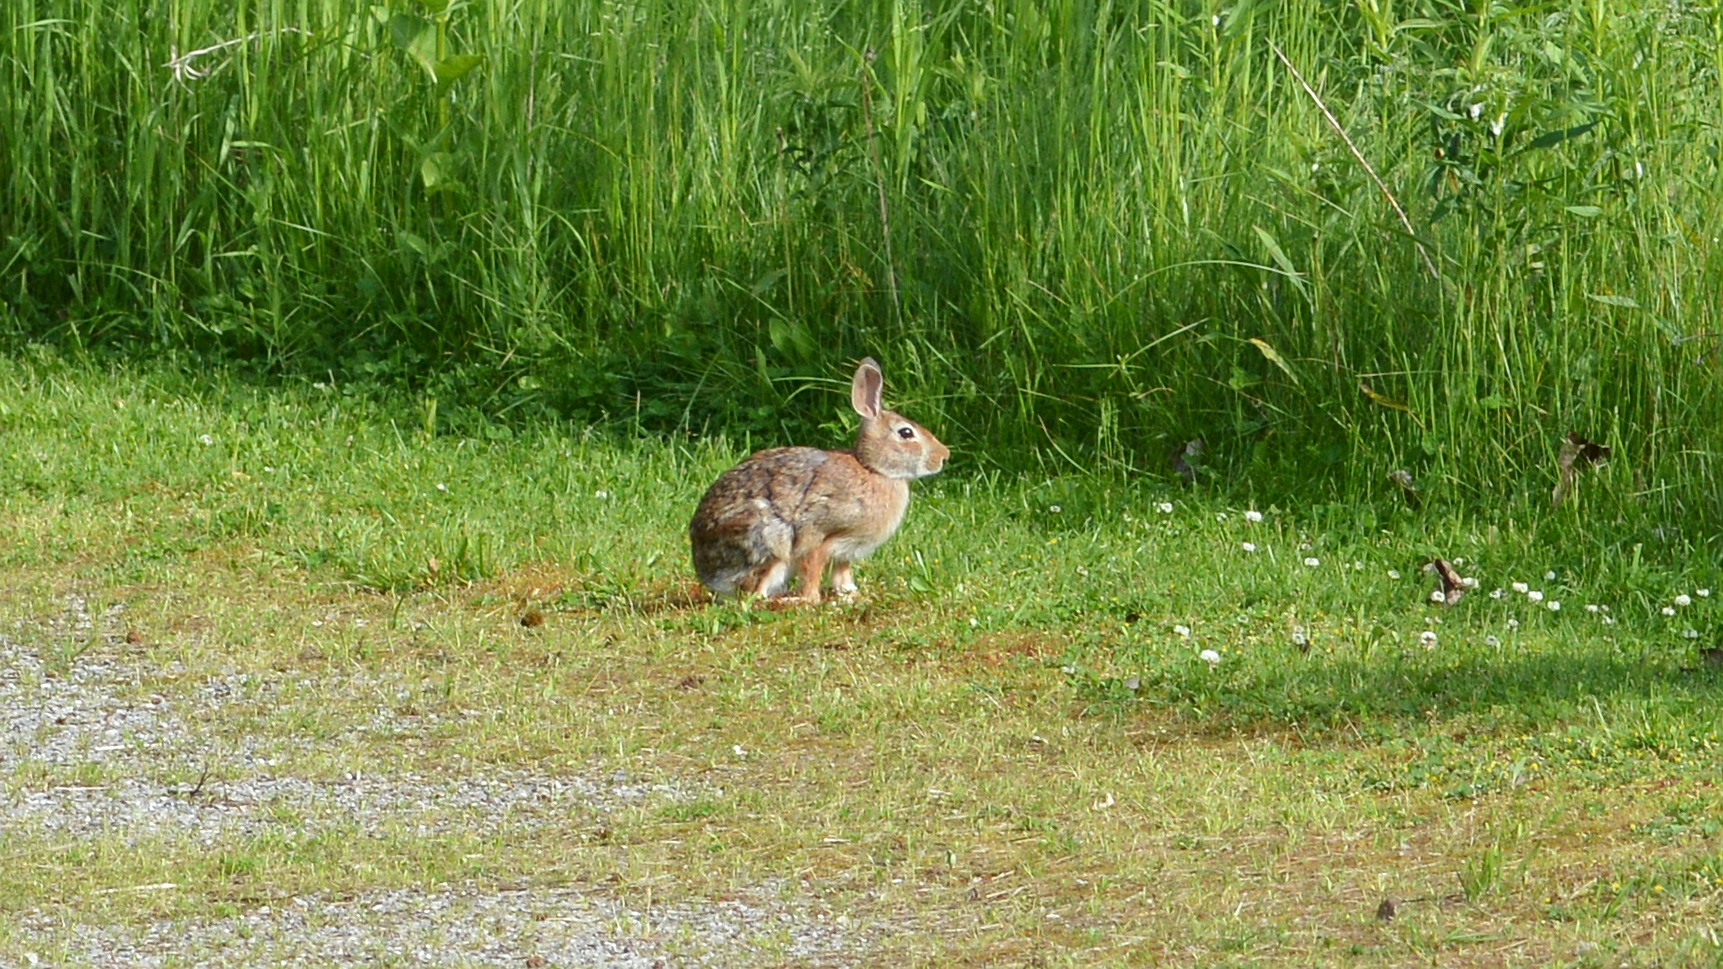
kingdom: Animalia
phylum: Chordata
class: Mammalia
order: Lagomorpha
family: Leporidae
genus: Sylvilagus
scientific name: Sylvilagus floridanus
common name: Eastern cottontail
